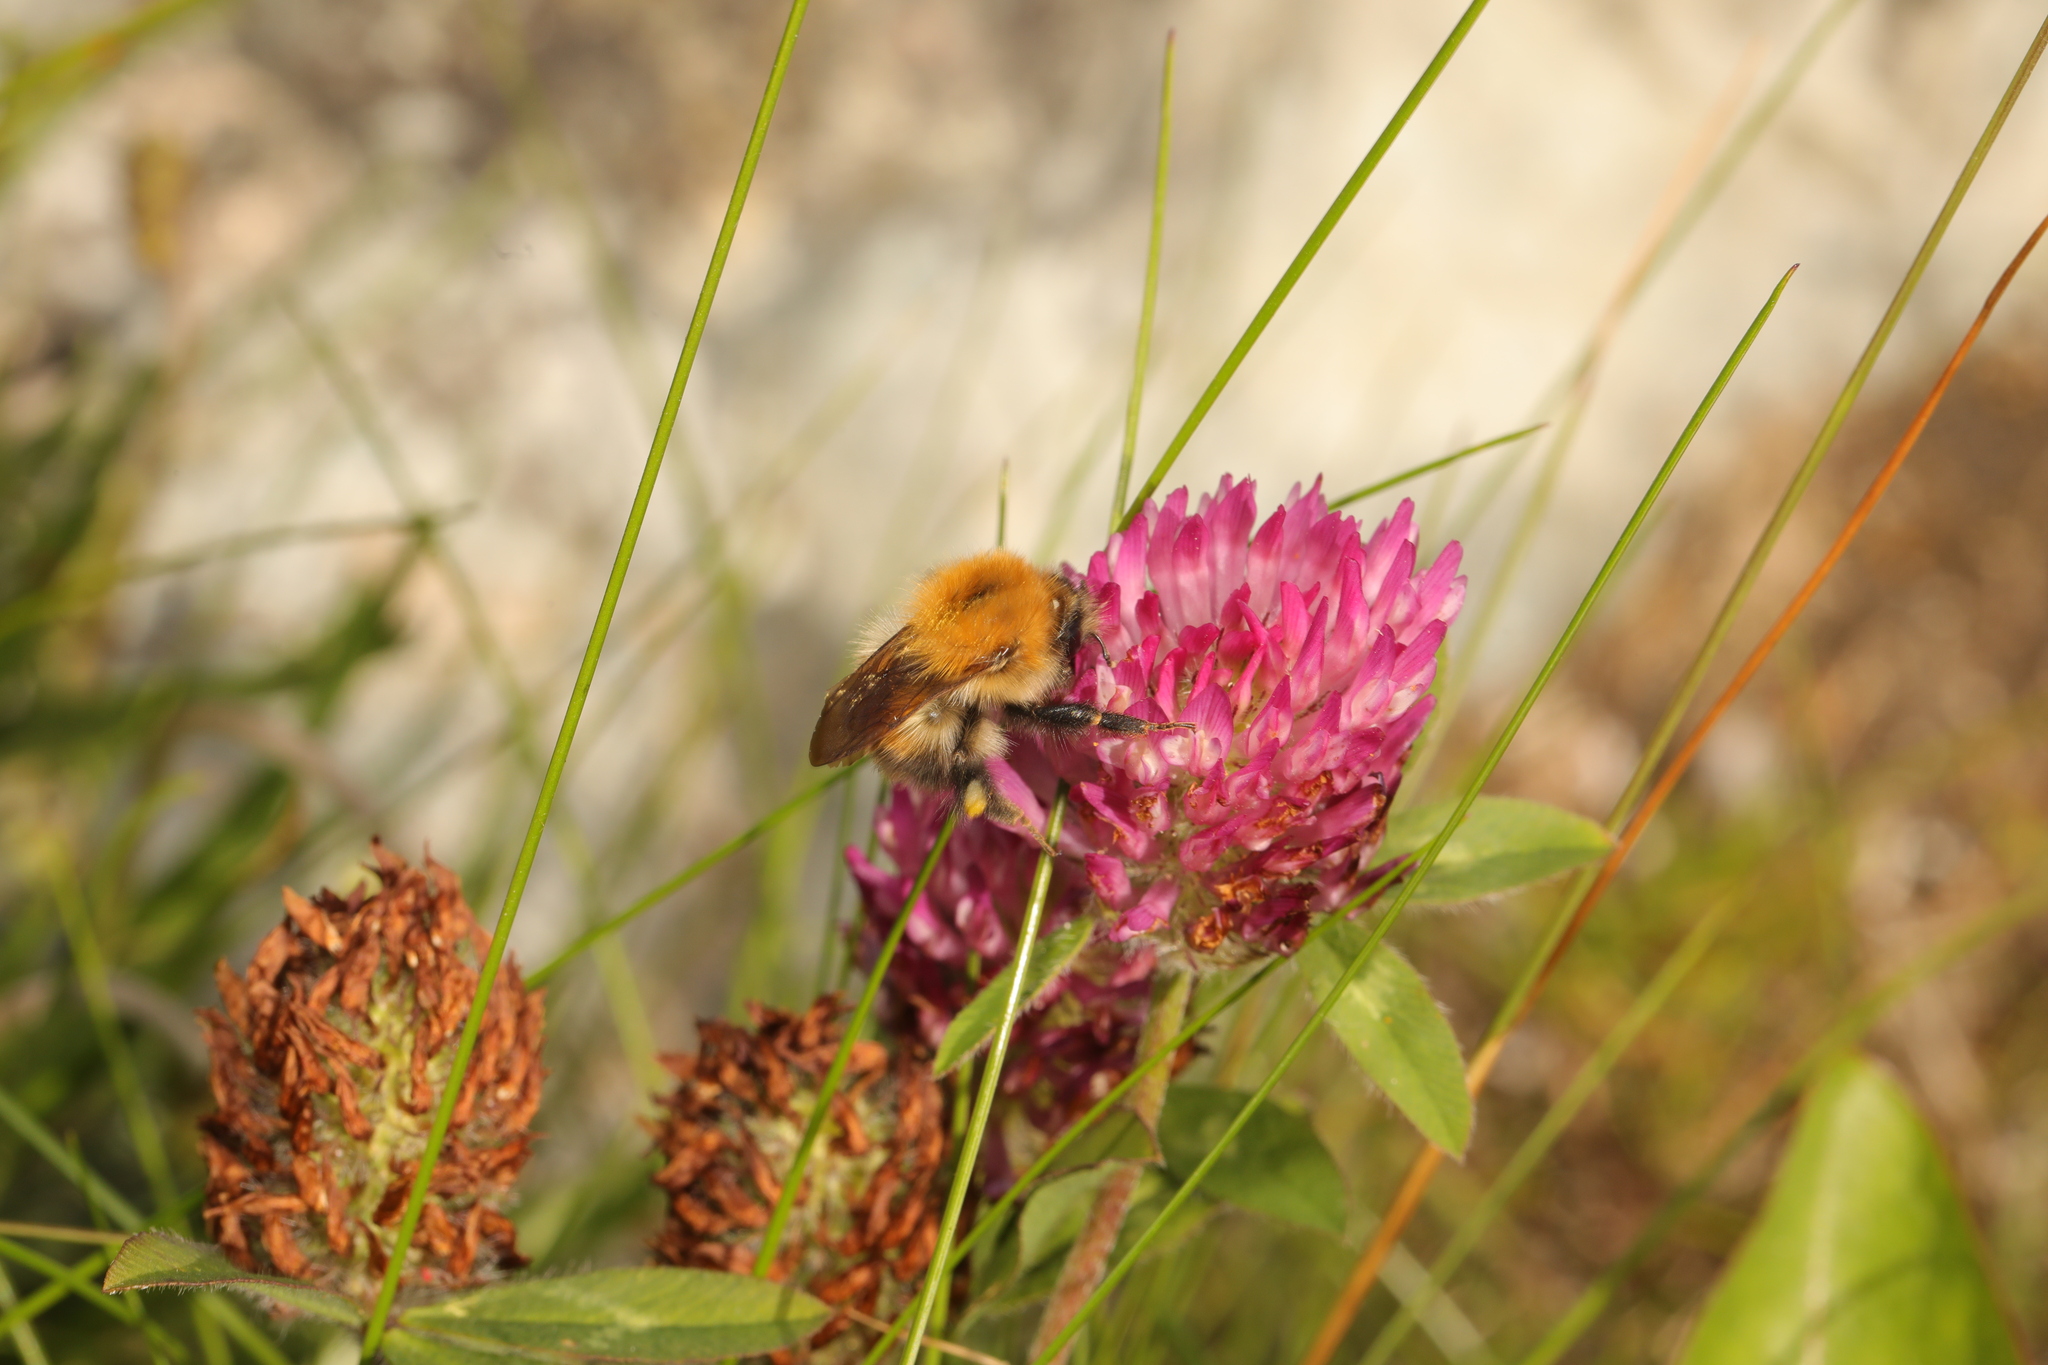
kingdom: Animalia
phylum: Arthropoda
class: Insecta
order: Hymenoptera
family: Apidae
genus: Bombus
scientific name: Bombus pascuorum
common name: Common carder bee
